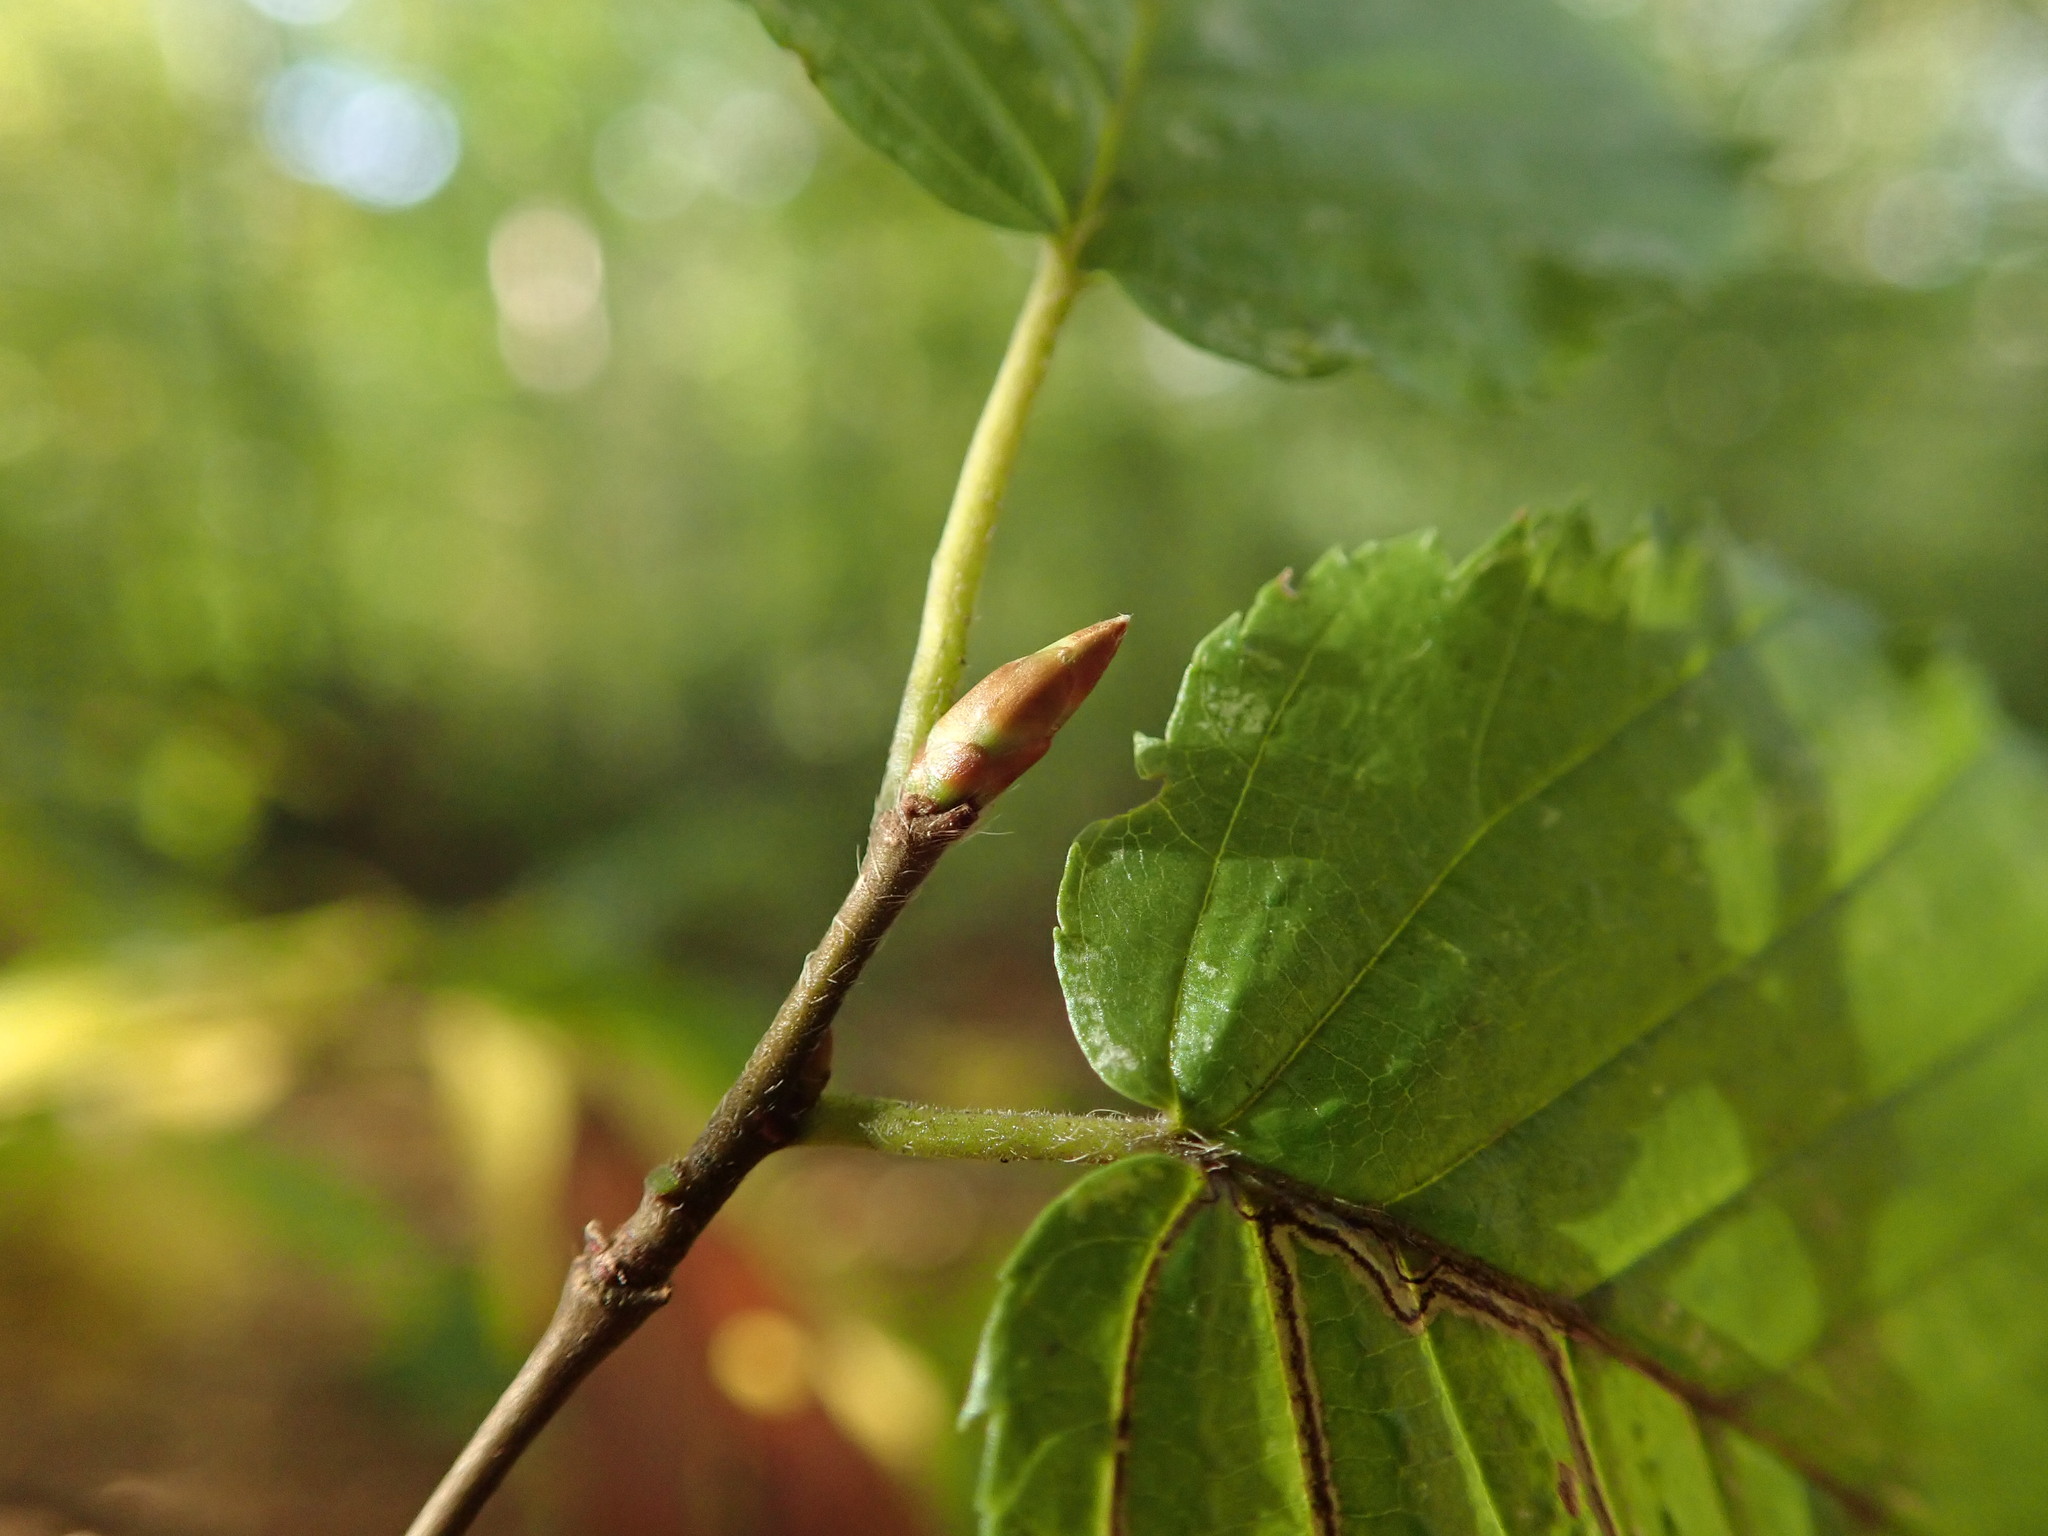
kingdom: Plantae
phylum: Tracheophyta
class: Magnoliopsida
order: Fagales
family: Betulaceae
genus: Carpinus
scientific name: Carpinus betulus
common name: Hornbeam
